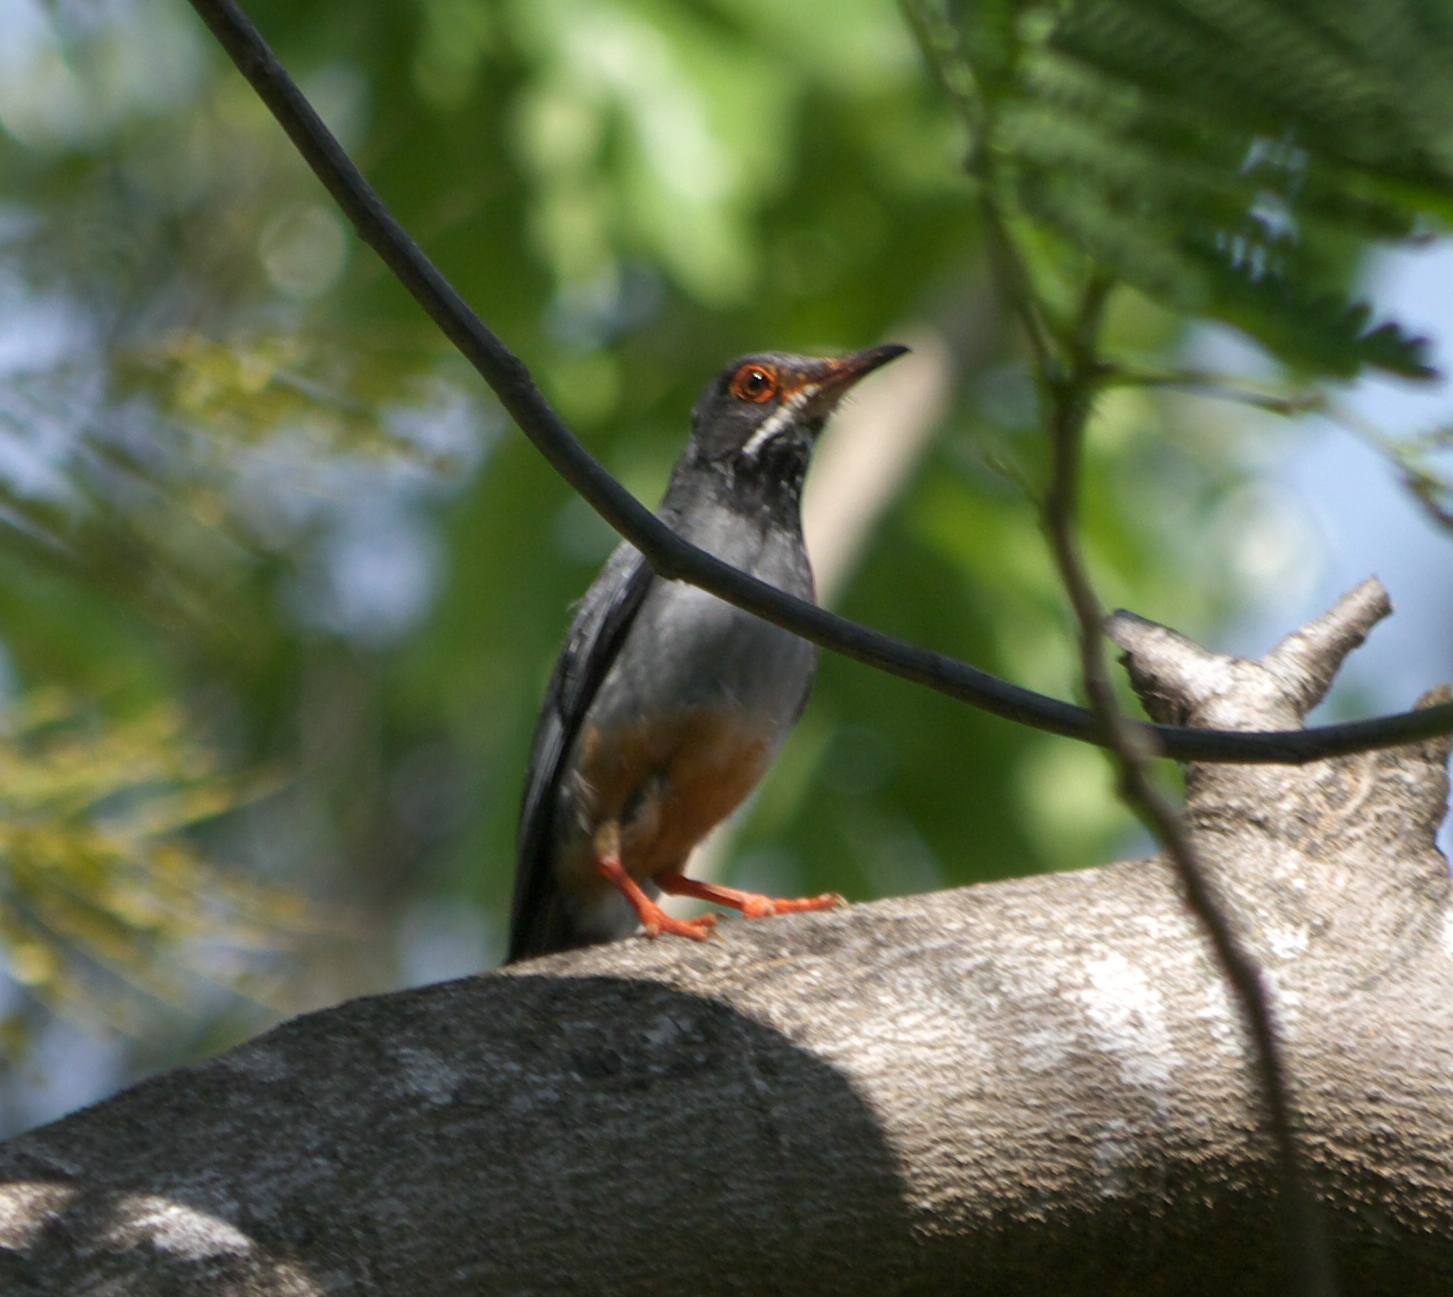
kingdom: Animalia
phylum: Chordata
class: Aves
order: Passeriformes
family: Turdidae
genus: Turdus
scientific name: Turdus plumbeus
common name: Red-legged thrush
